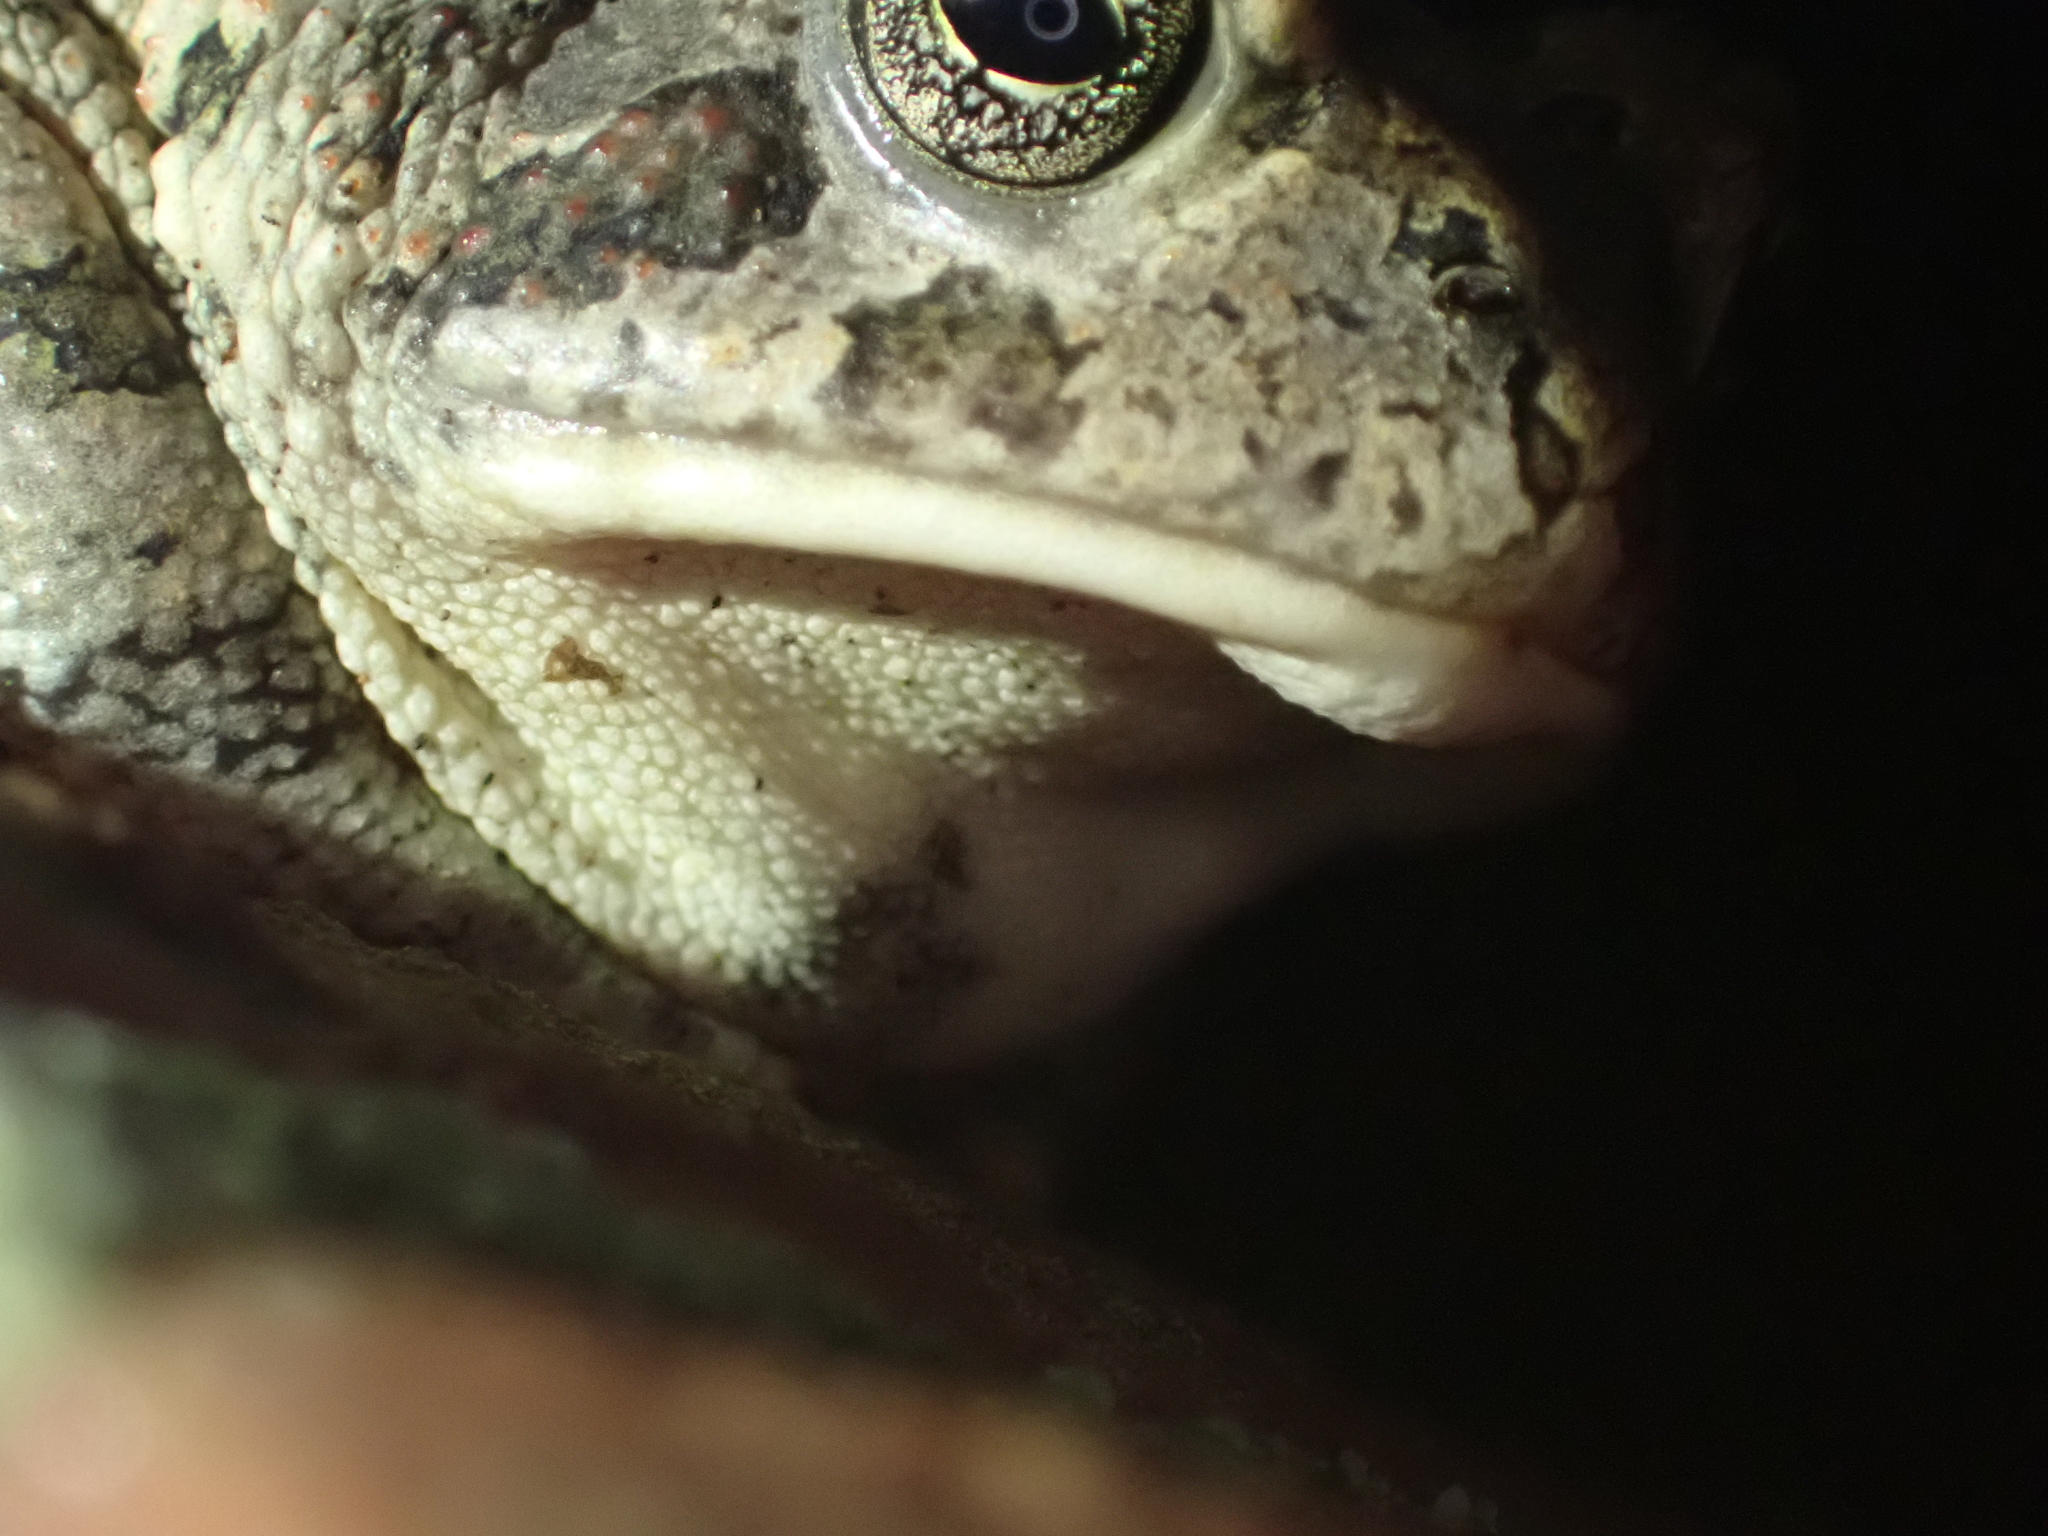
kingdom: Animalia
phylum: Chordata
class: Amphibia
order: Anura
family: Bufonidae
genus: Anaxyrus
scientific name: Anaxyrus fowleri
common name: Fowler's toad
